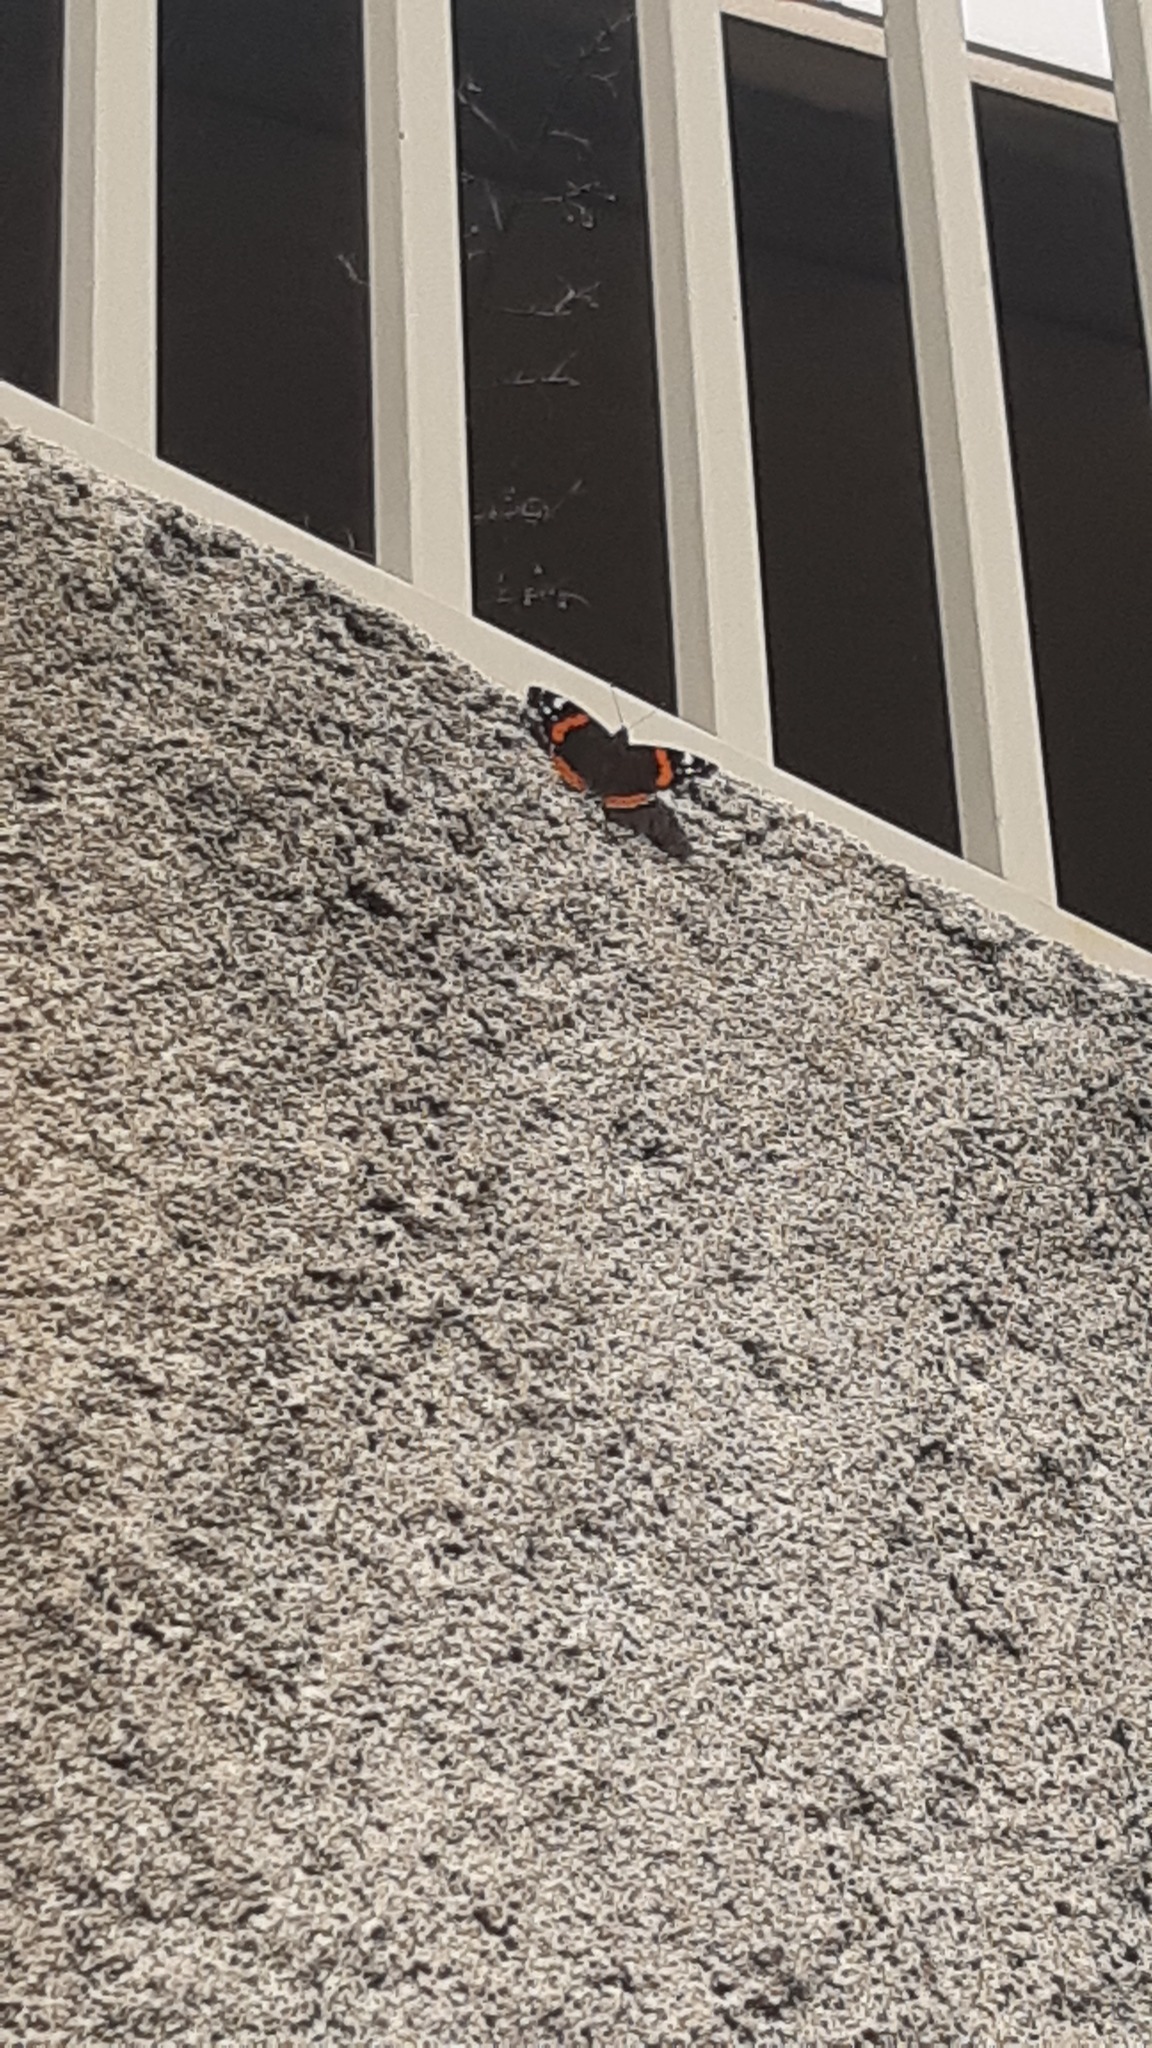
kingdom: Animalia
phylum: Arthropoda
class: Insecta
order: Lepidoptera
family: Nymphalidae
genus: Vanessa
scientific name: Vanessa atalanta
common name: Red admiral
